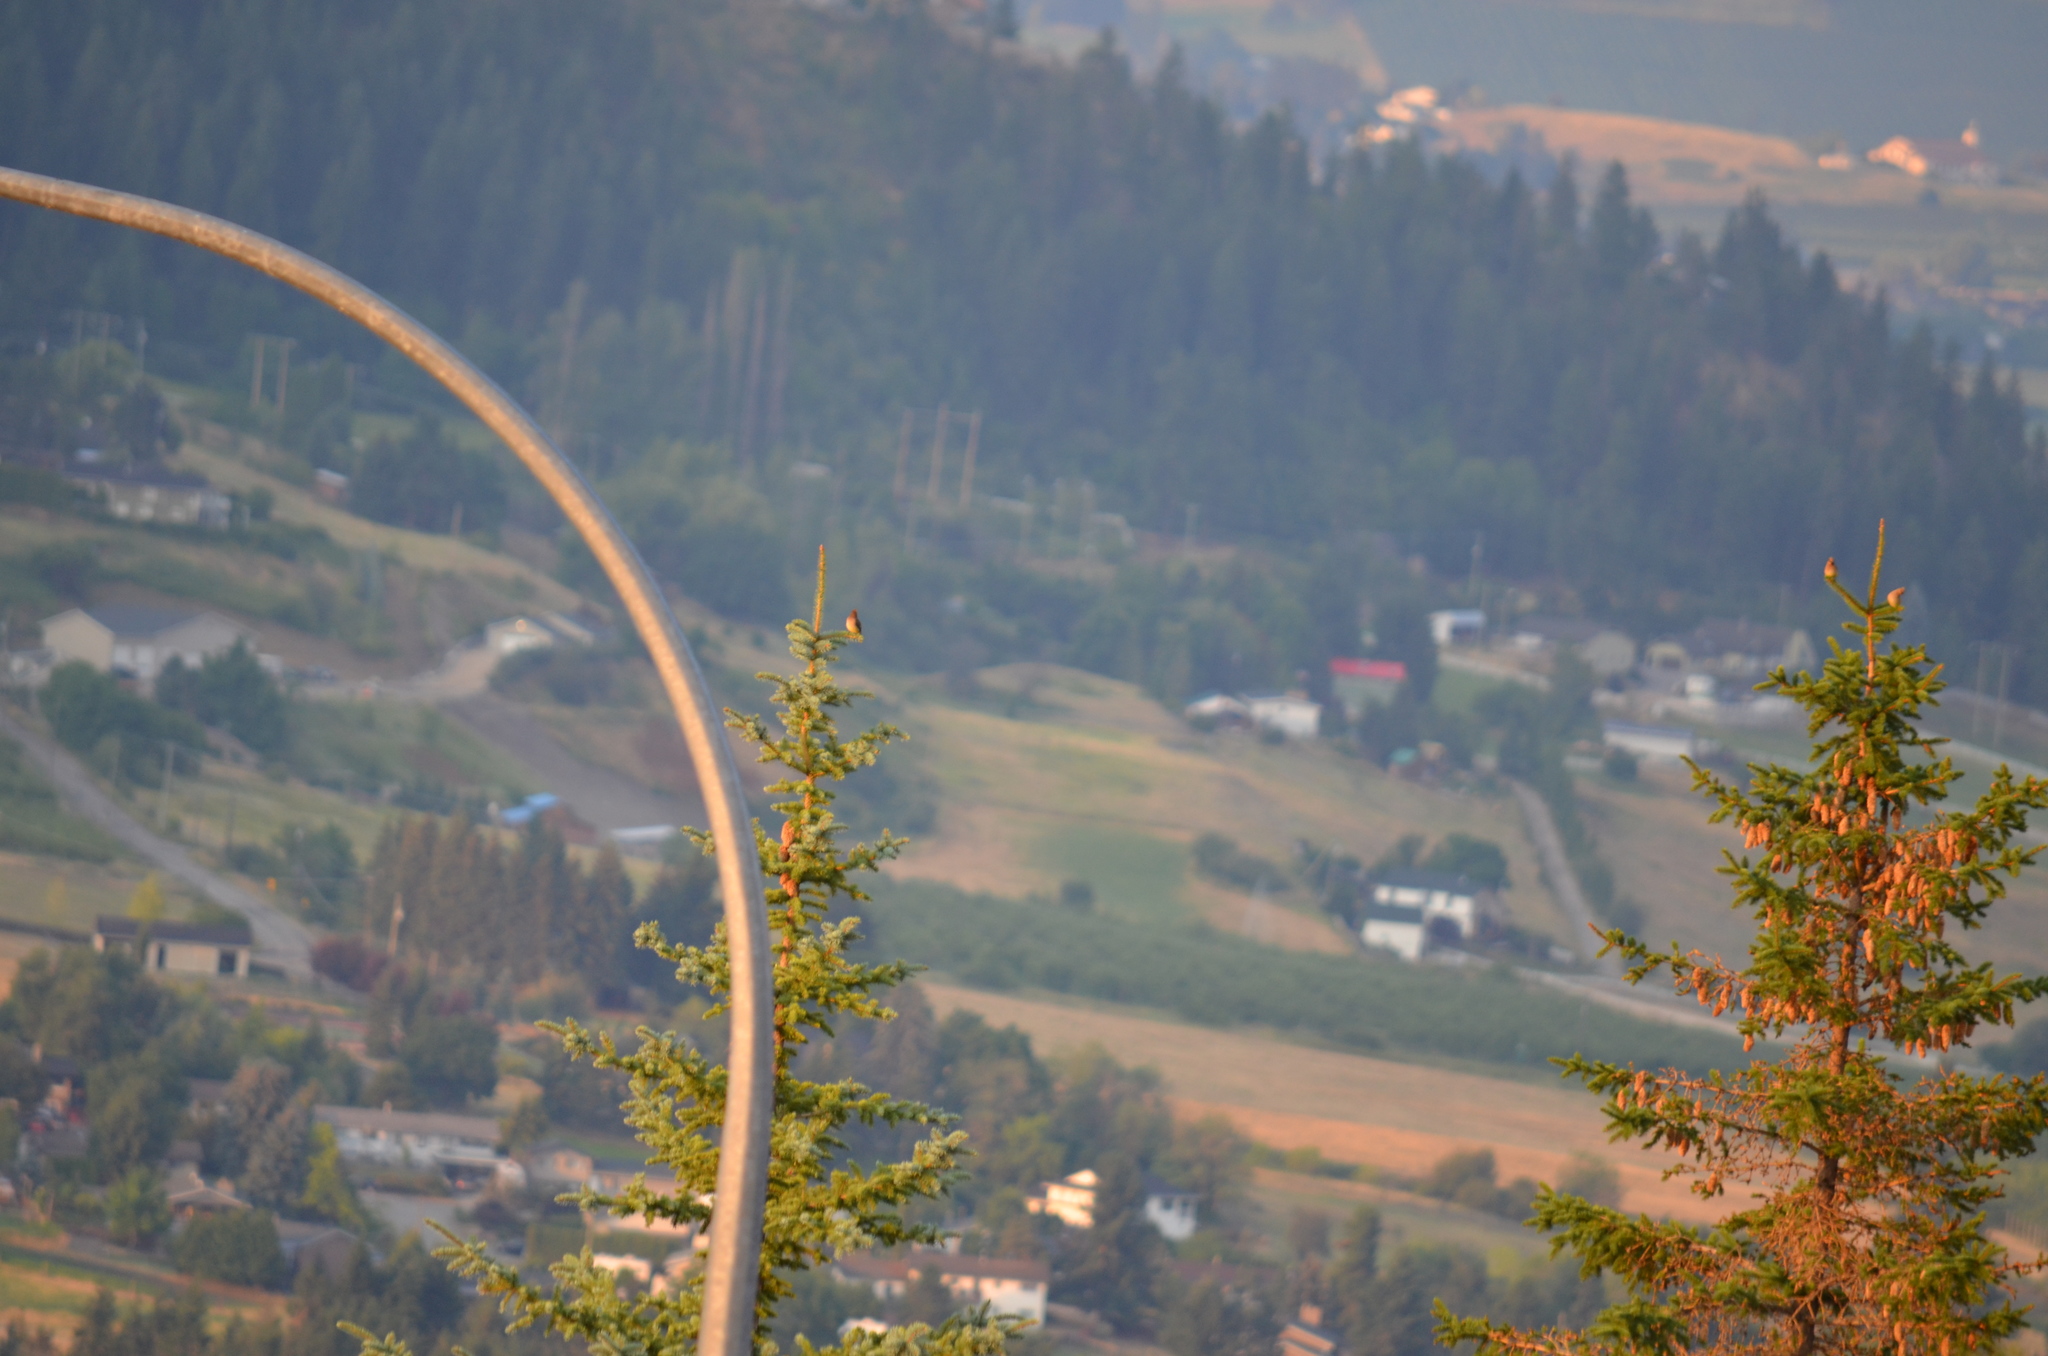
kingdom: Animalia
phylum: Chordata
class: Aves
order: Passeriformes
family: Bombycillidae
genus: Bombycilla
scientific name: Bombycilla cedrorum
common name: Cedar waxwing
